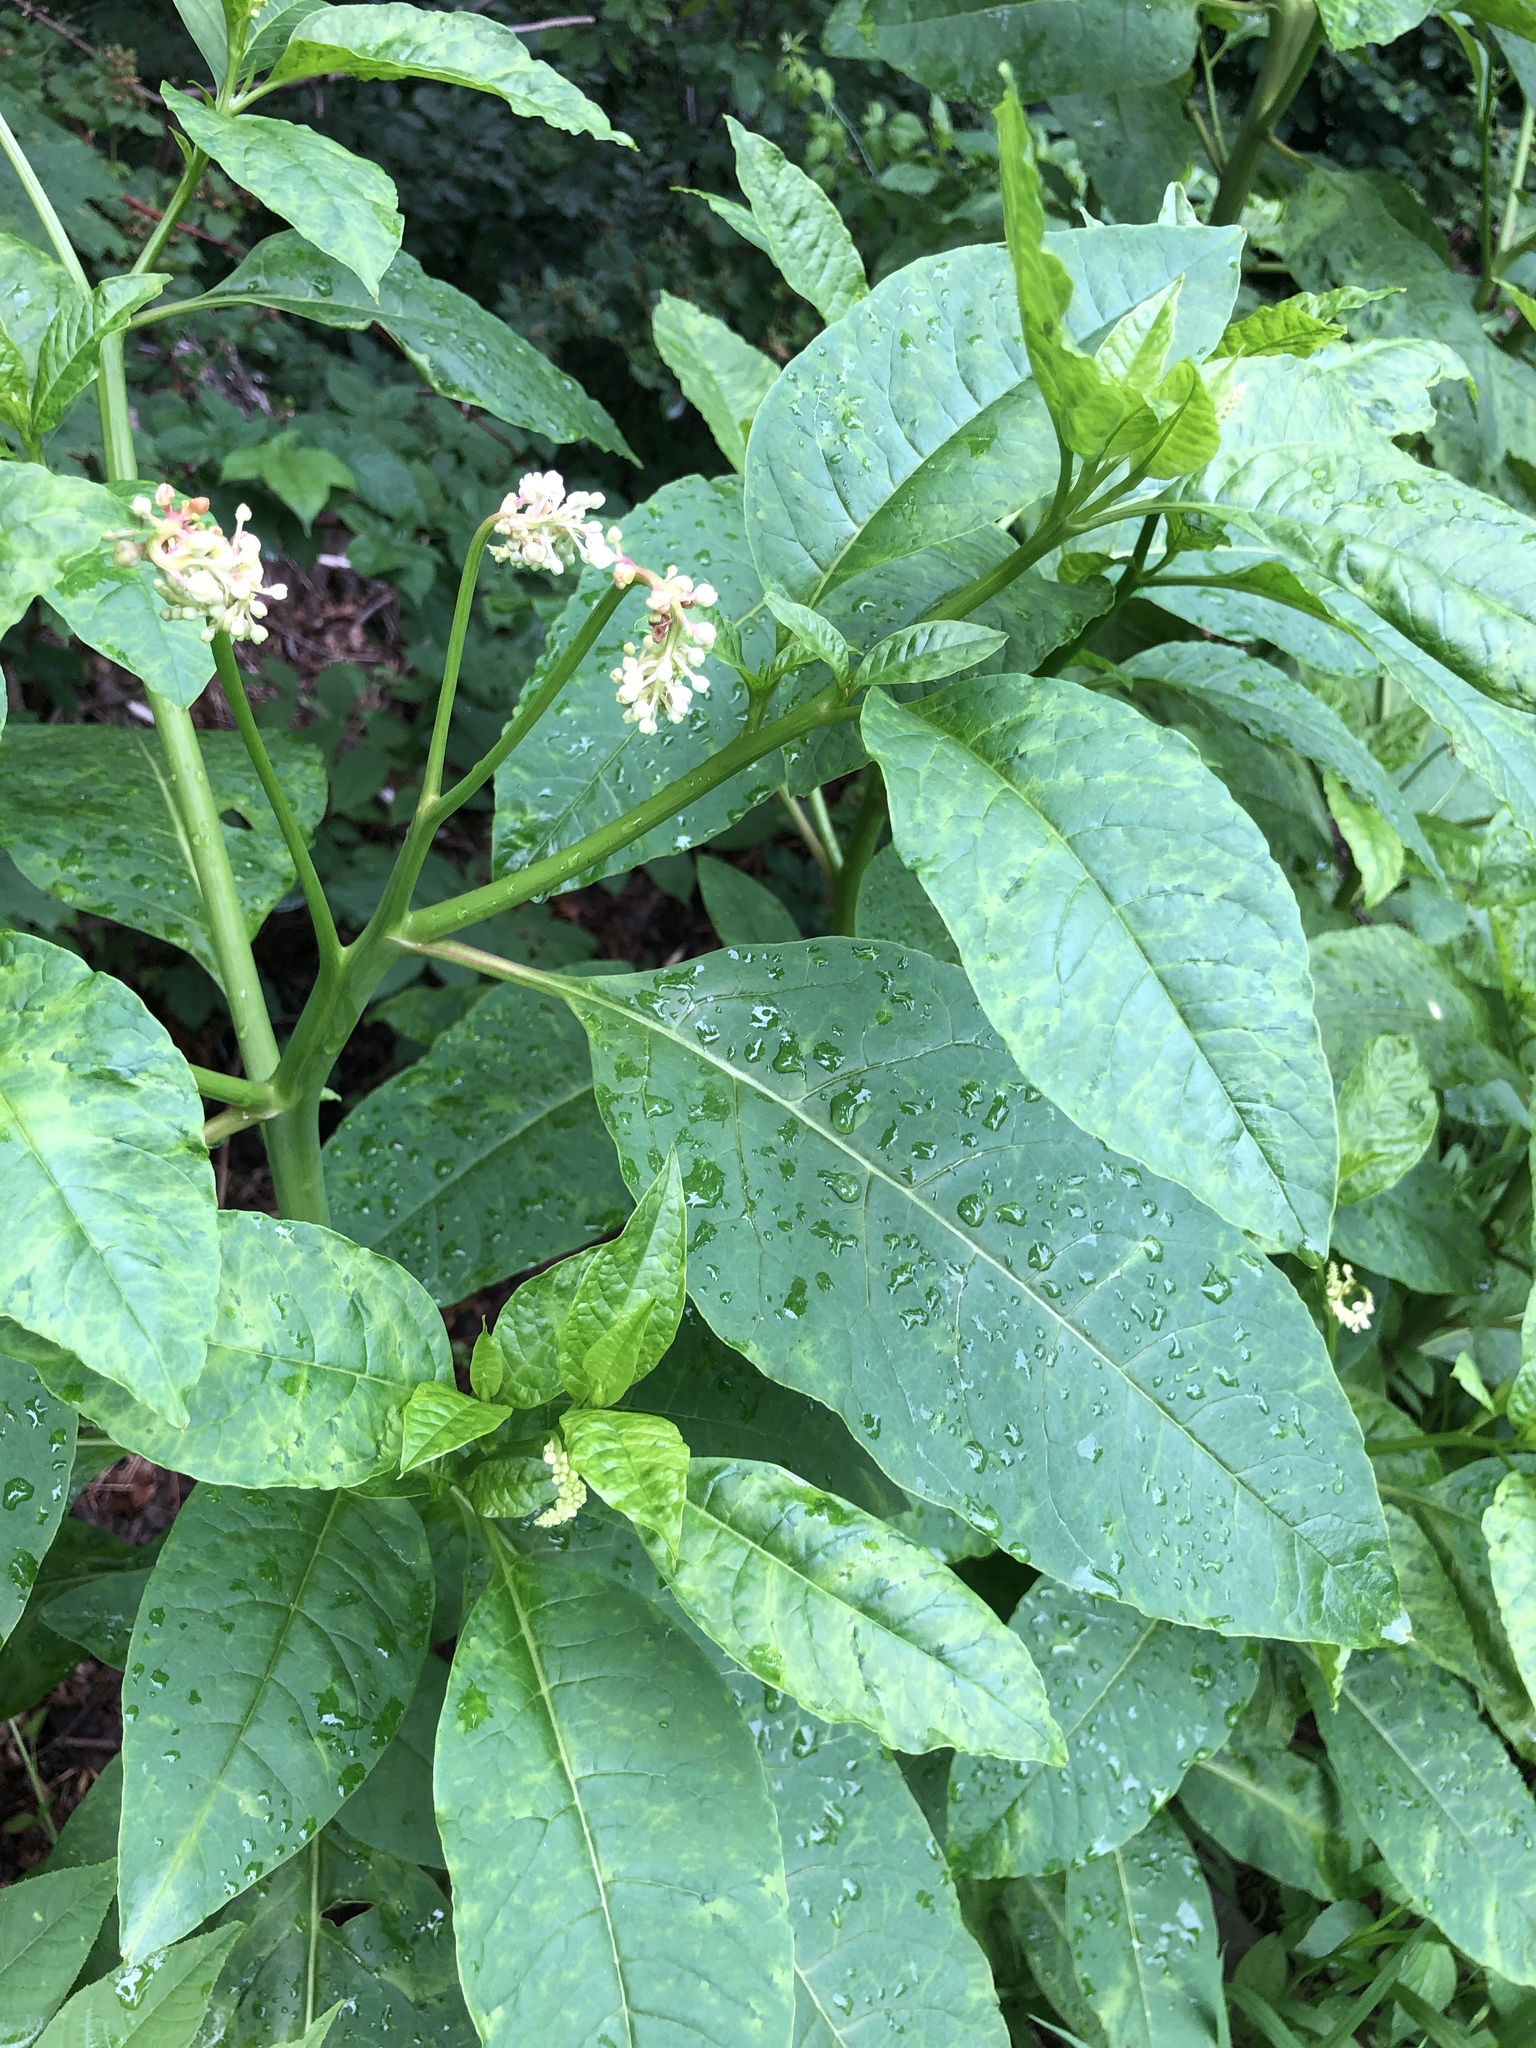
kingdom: Plantae
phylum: Tracheophyta
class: Magnoliopsida
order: Caryophyllales
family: Phytolaccaceae
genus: Phytolacca
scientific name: Phytolacca americana
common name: American pokeweed
